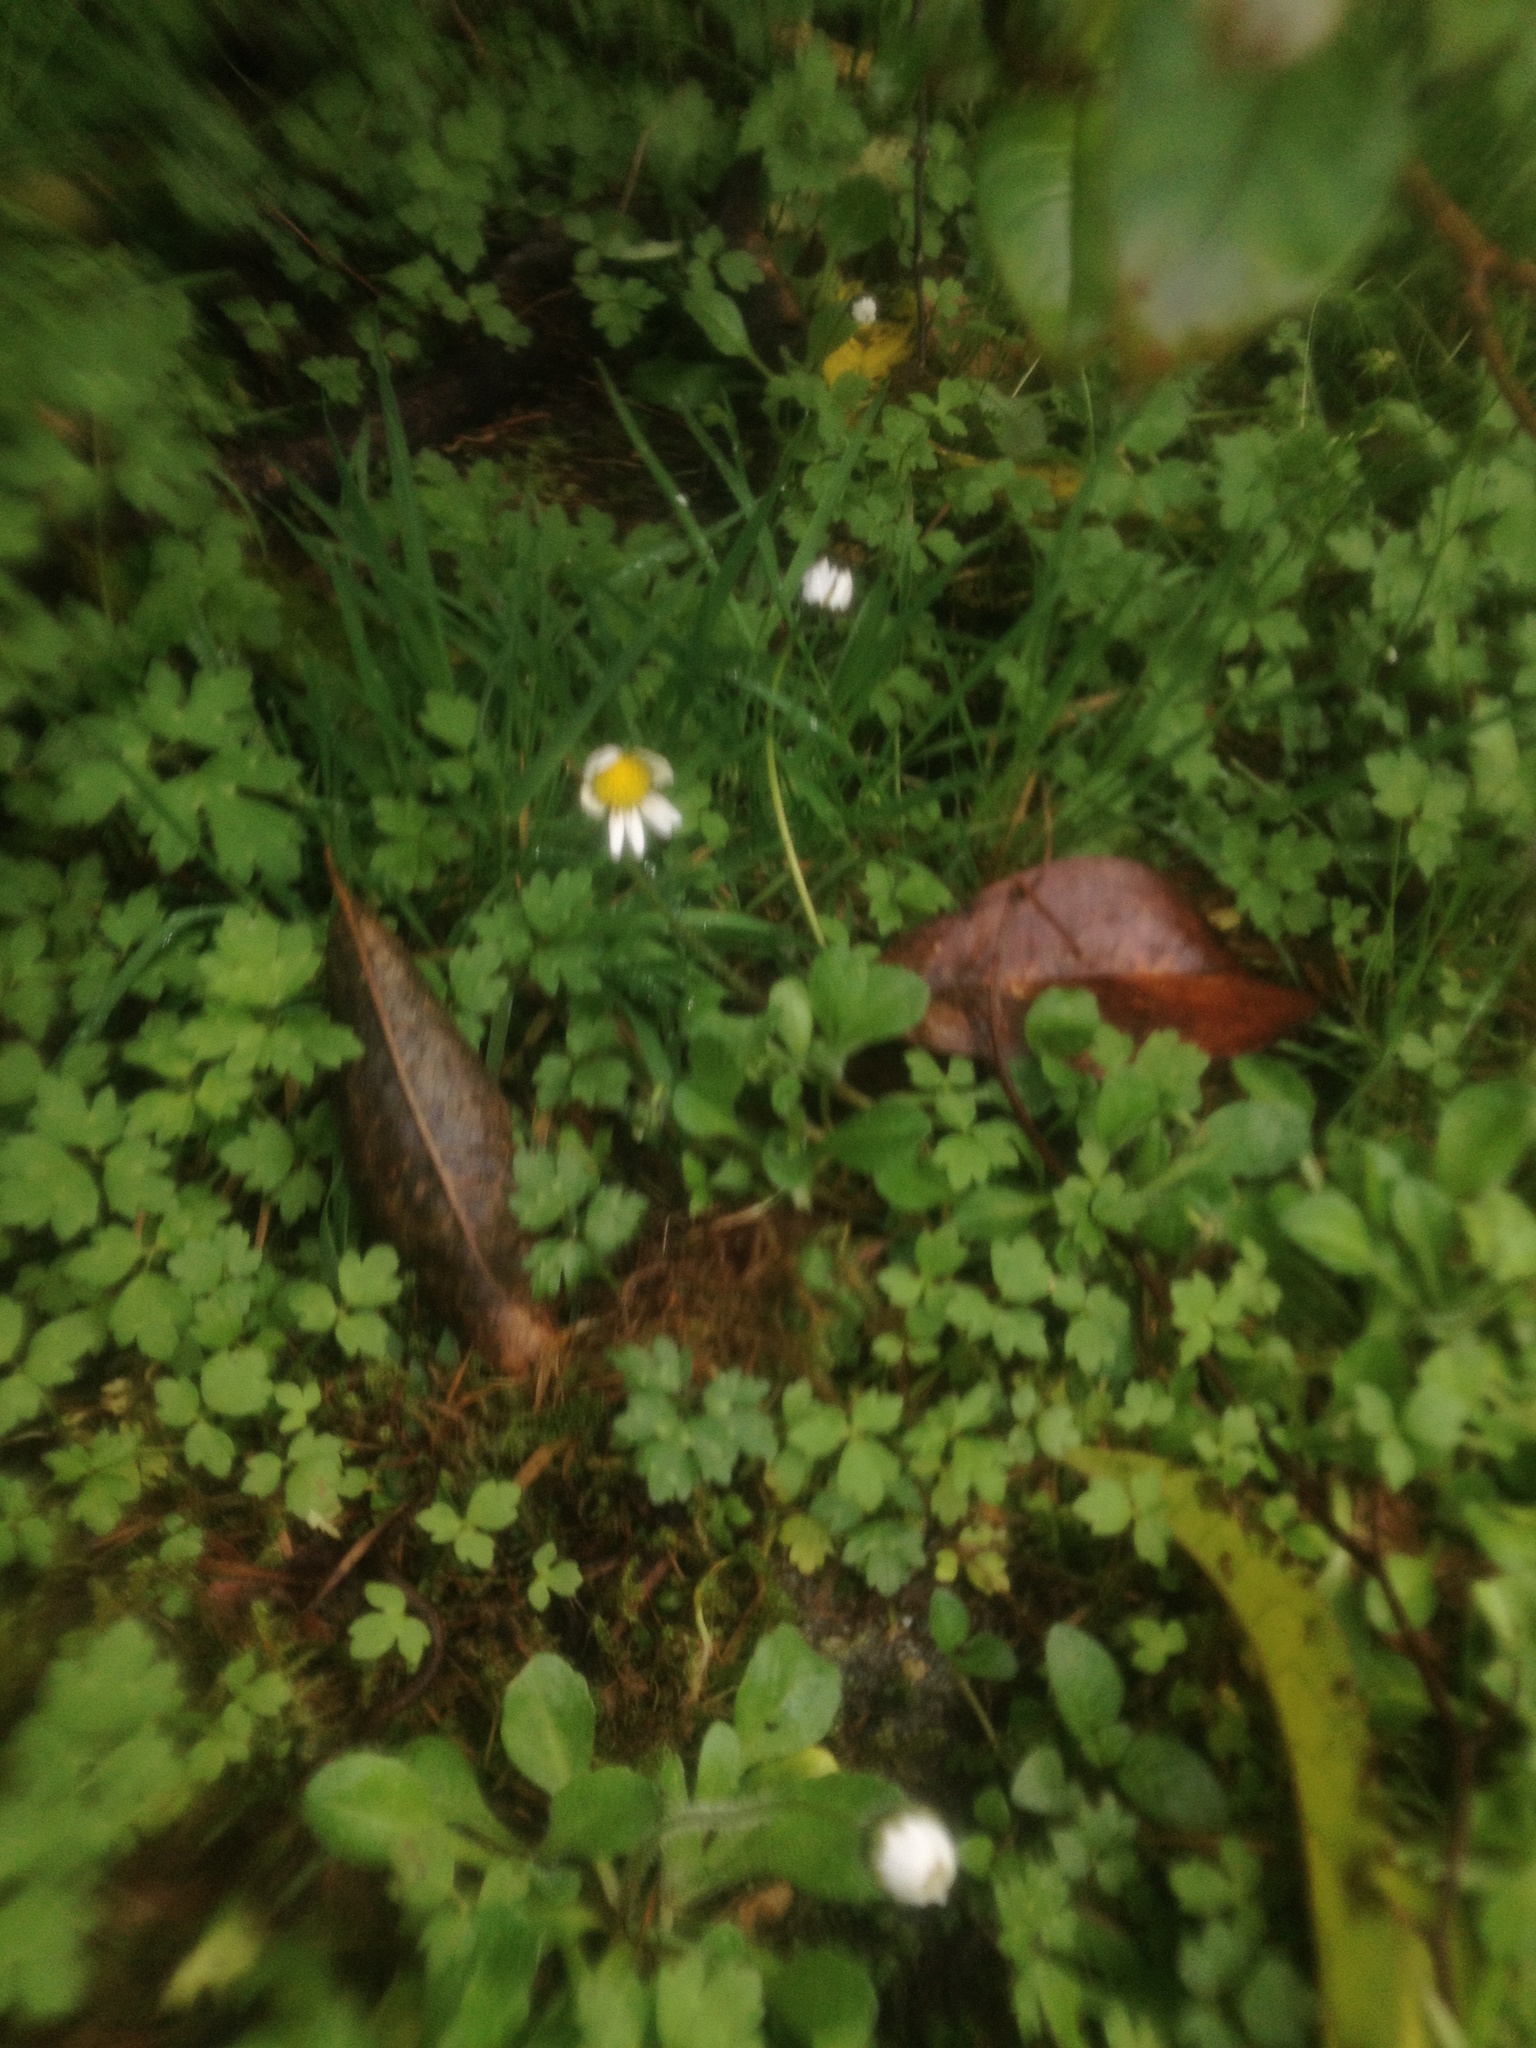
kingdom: Plantae
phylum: Tracheophyta
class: Magnoliopsida
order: Asterales
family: Asteraceae
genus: Bellis
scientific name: Bellis perennis
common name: Lawndaisy
